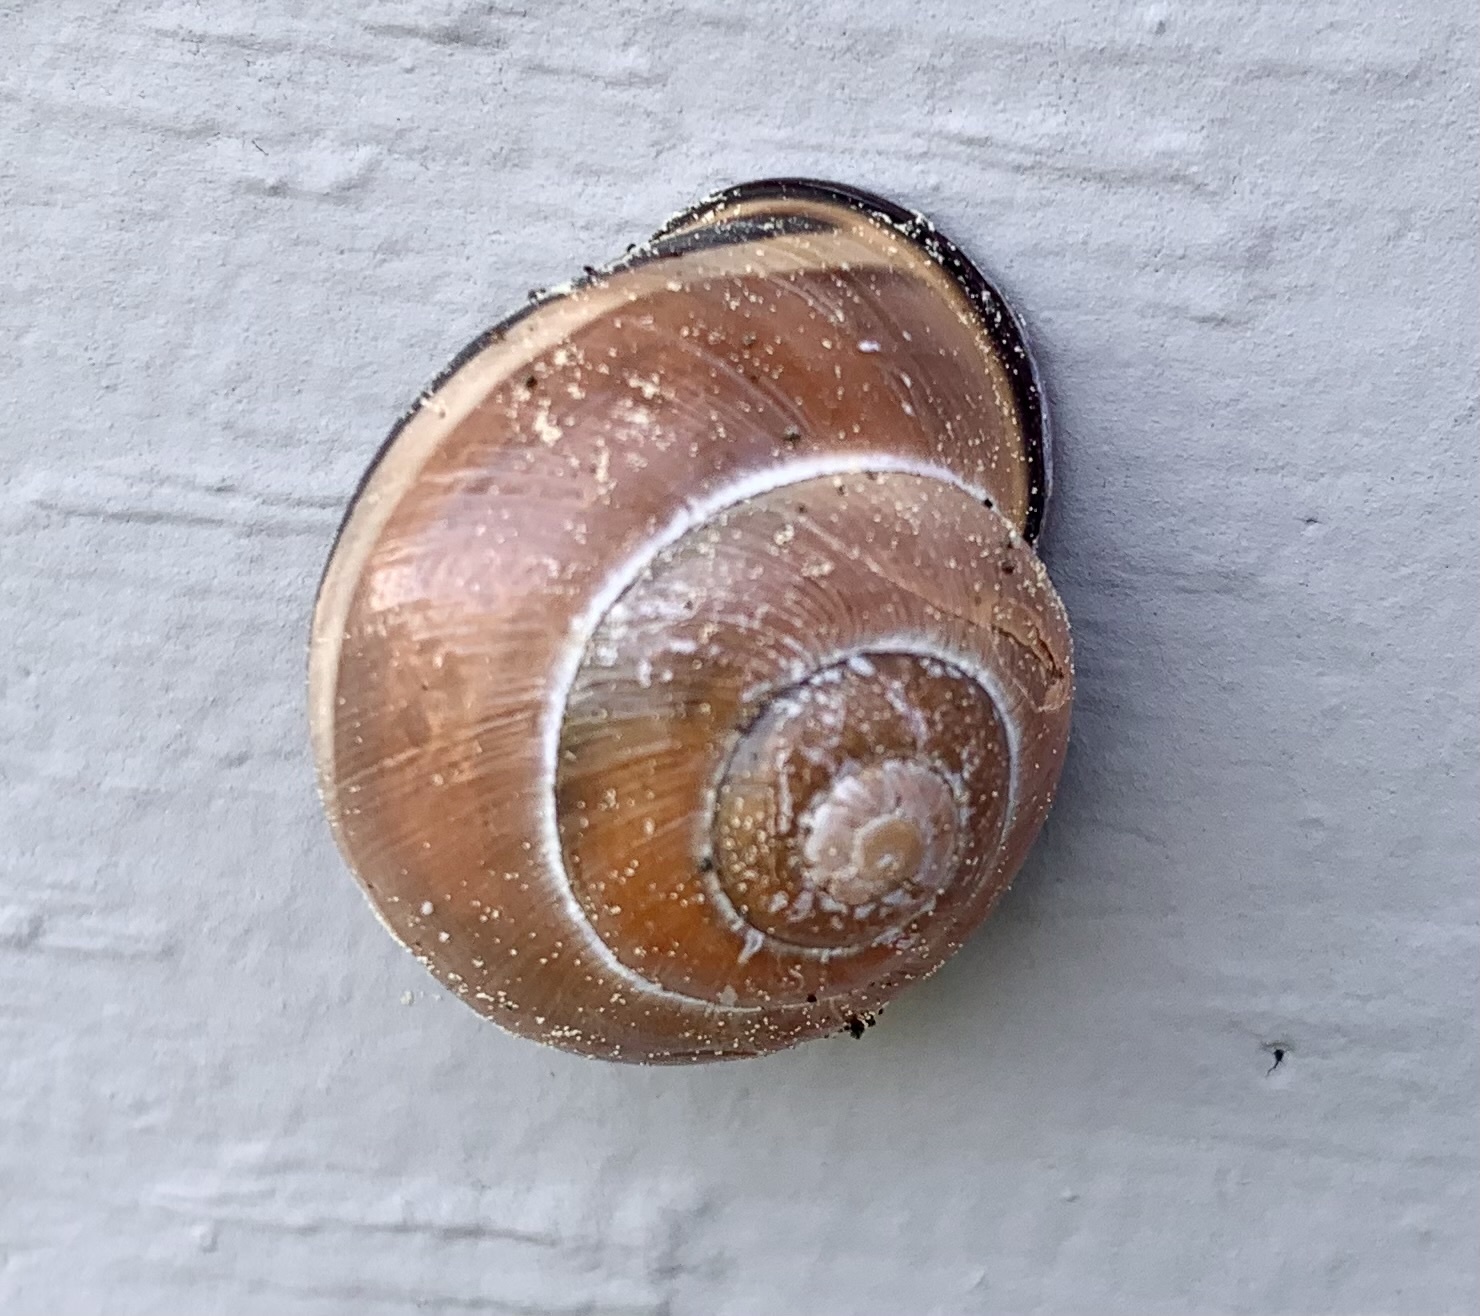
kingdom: Animalia
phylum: Mollusca
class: Gastropoda
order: Stylommatophora
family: Helicidae
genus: Cepaea
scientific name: Cepaea nemoralis
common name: Grovesnail
